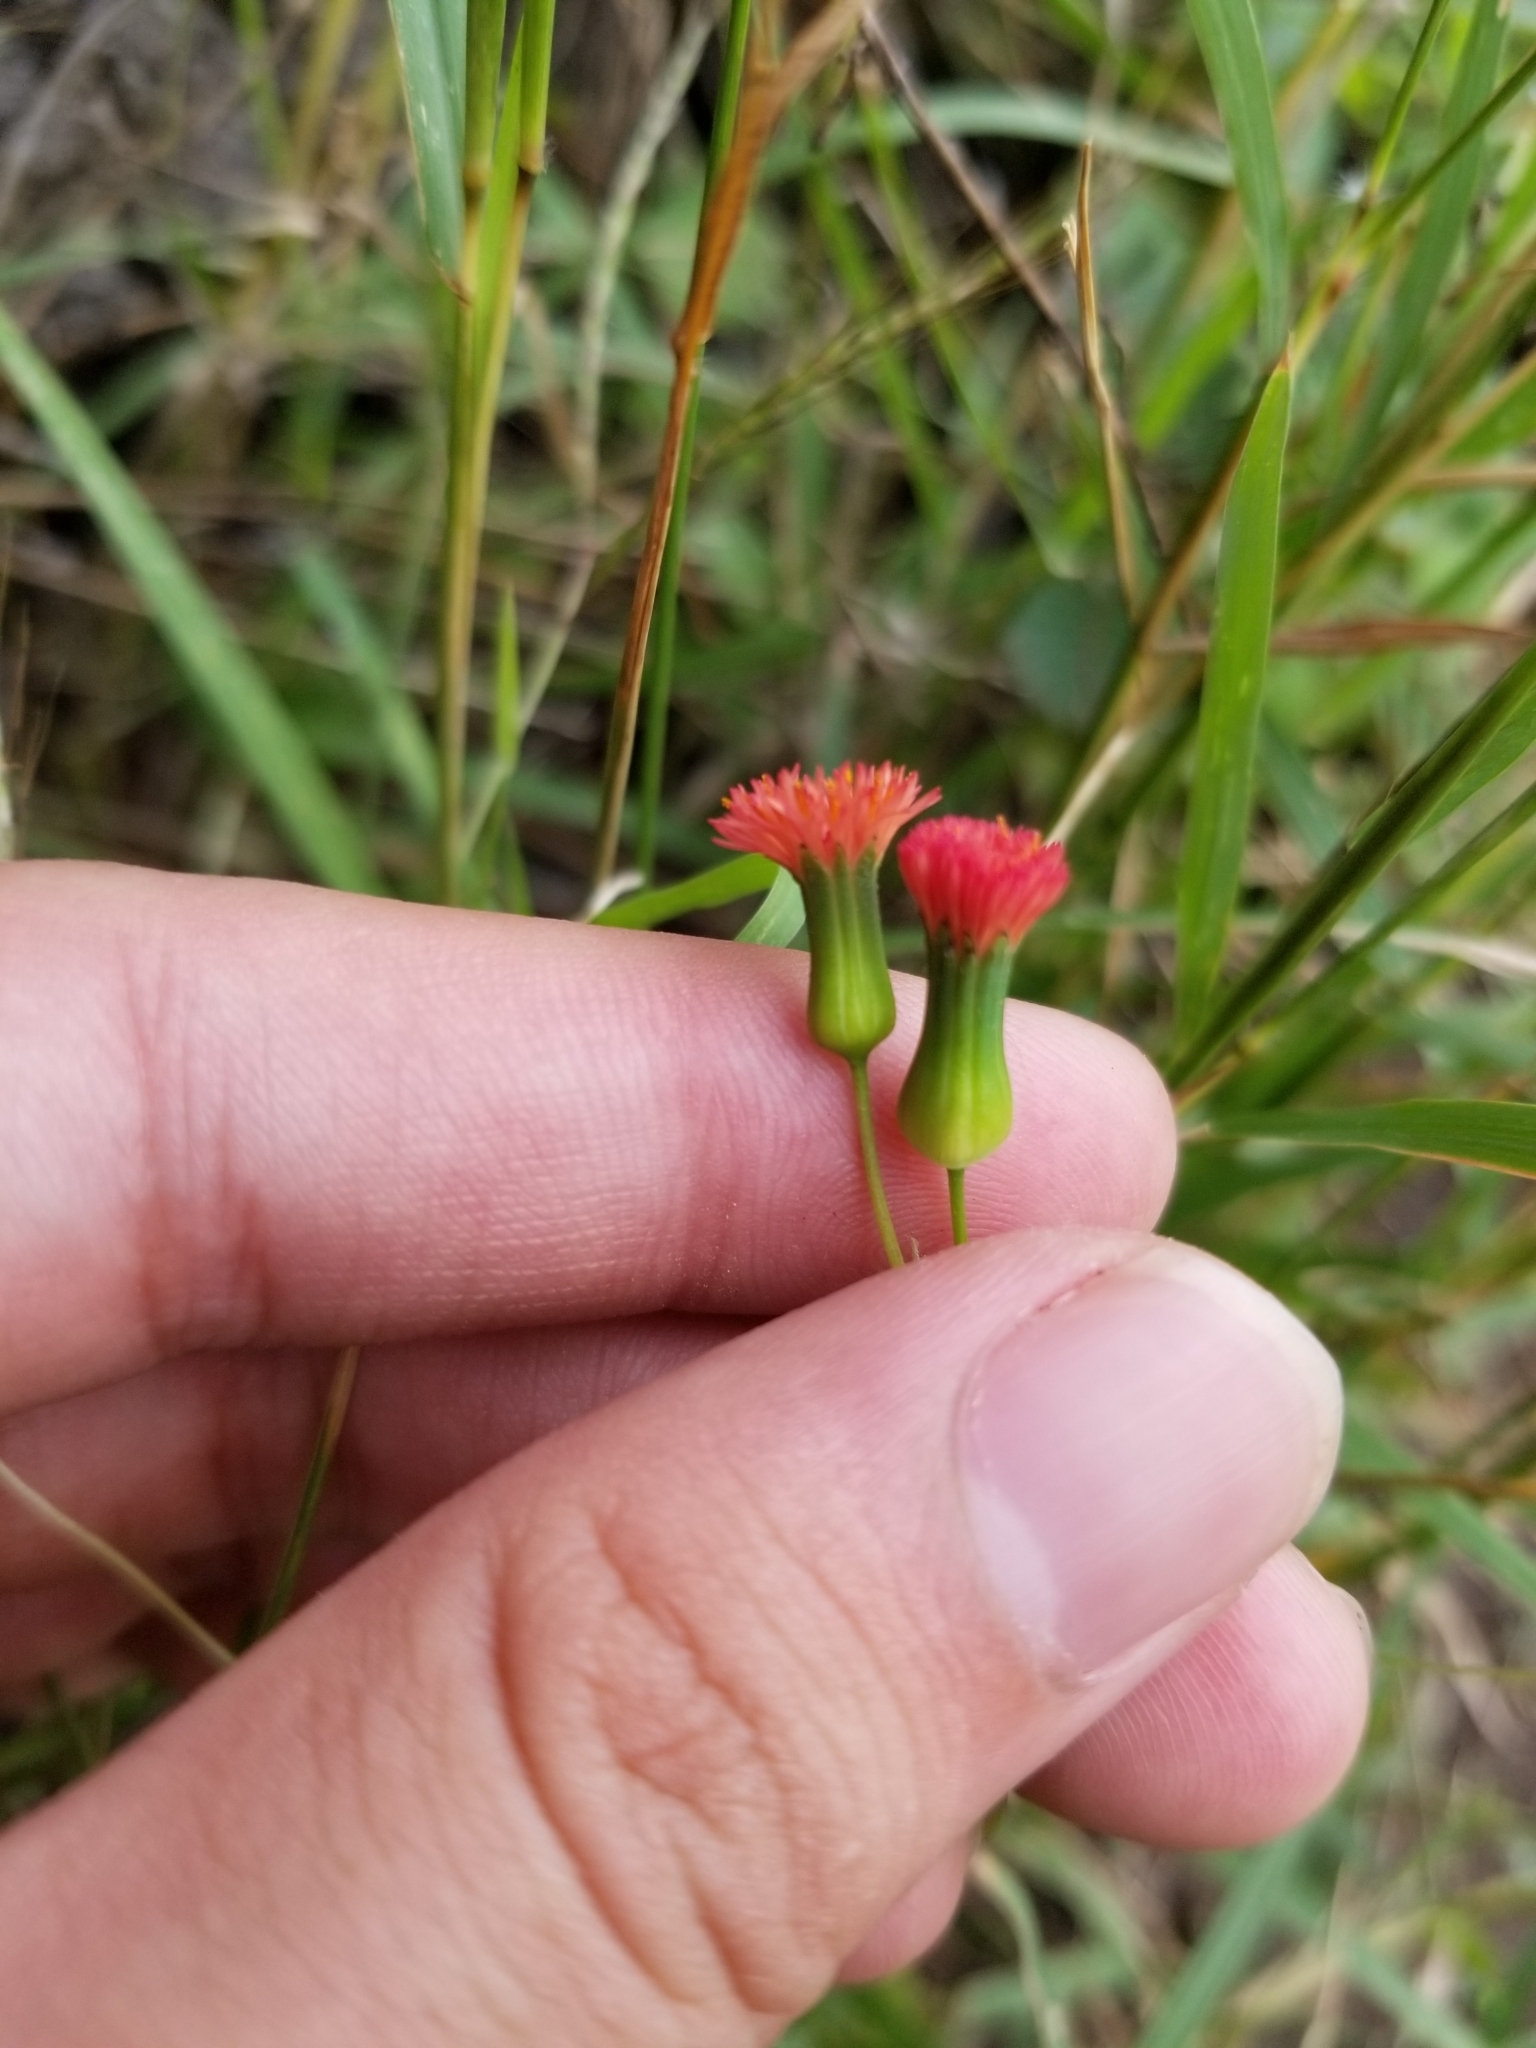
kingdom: Plantae
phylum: Tracheophyta
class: Magnoliopsida
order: Asterales
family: Asteraceae
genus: Emilia
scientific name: Emilia fosbergii
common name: Florida tasselflower
